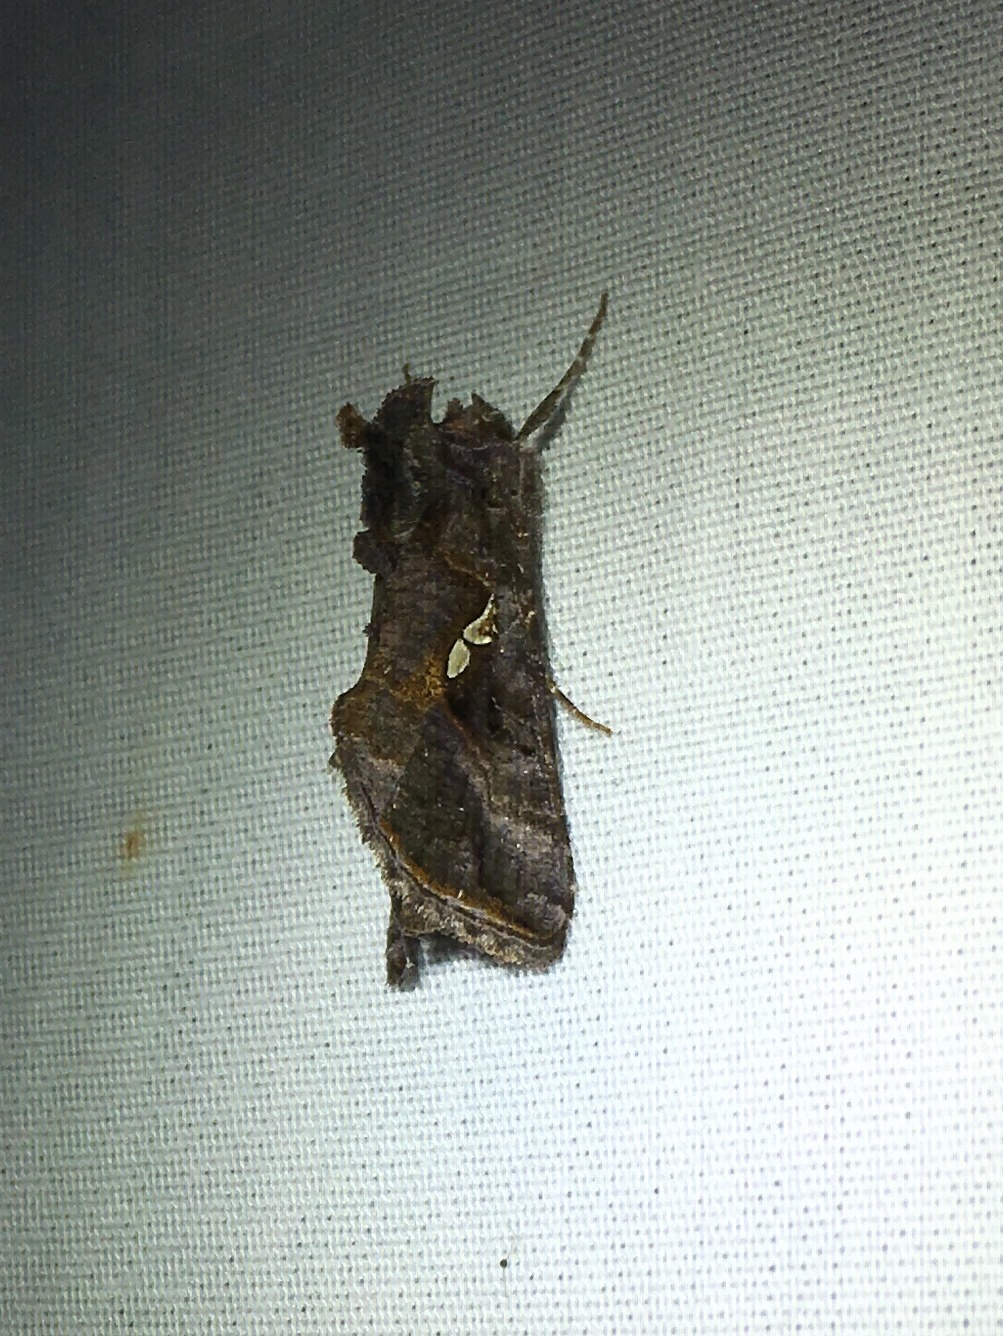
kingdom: Animalia
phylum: Arthropoda
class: Insecta
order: Lepidoptera
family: Noctuidae
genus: Autographa
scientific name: Autographa precationis
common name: Common looper moth
